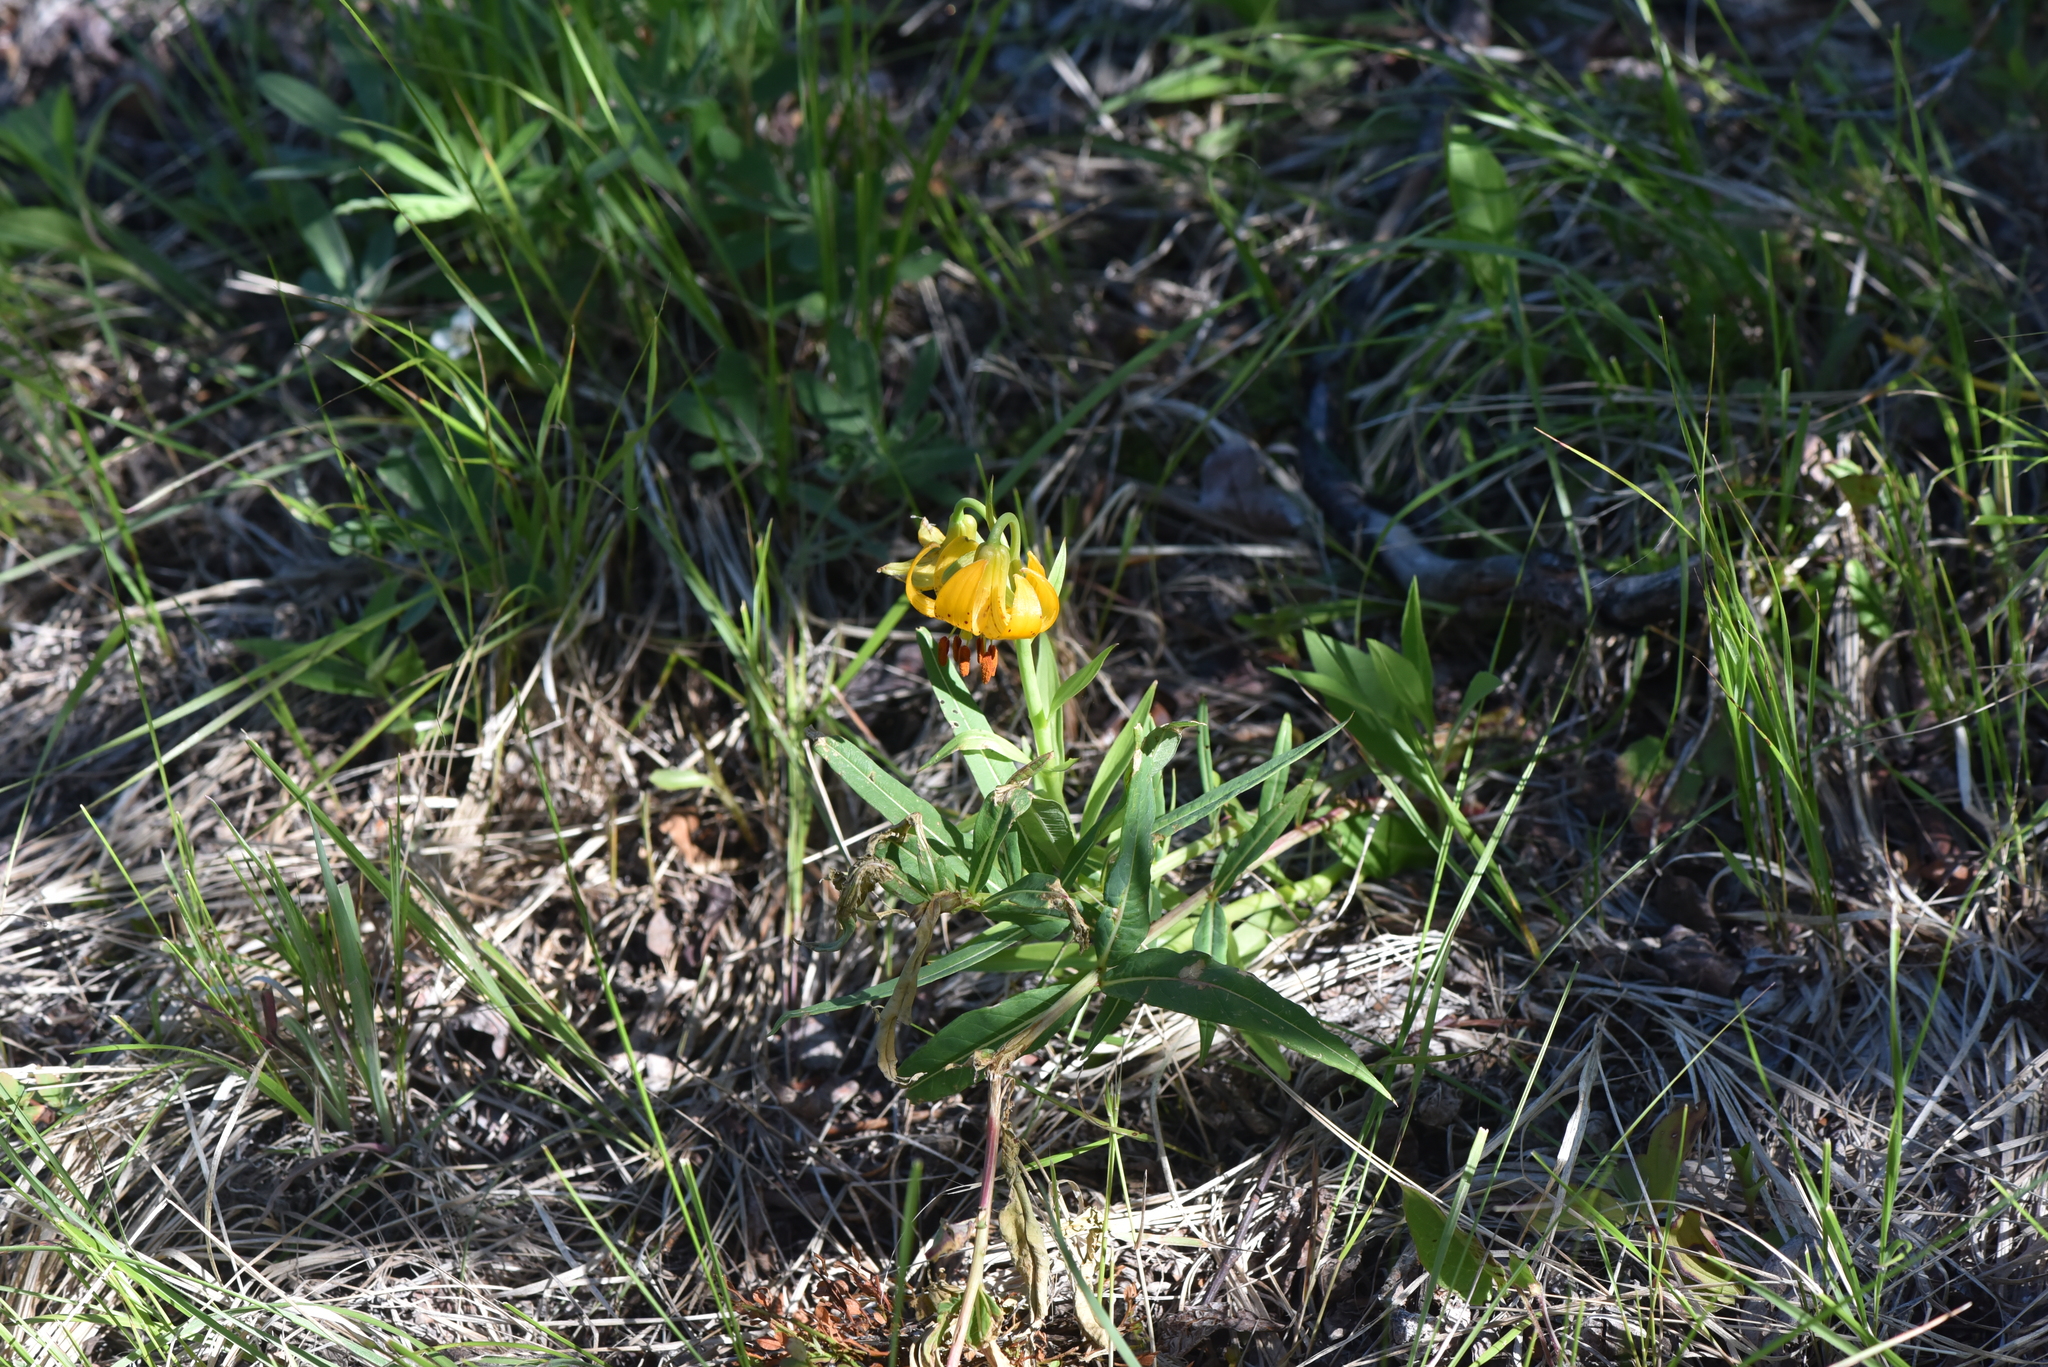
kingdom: Plantae
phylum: Tracheophyta
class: Liliopsida
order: Liliales
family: Liliaceae
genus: Lilium
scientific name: Lilium columbianum
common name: Columbia lily
